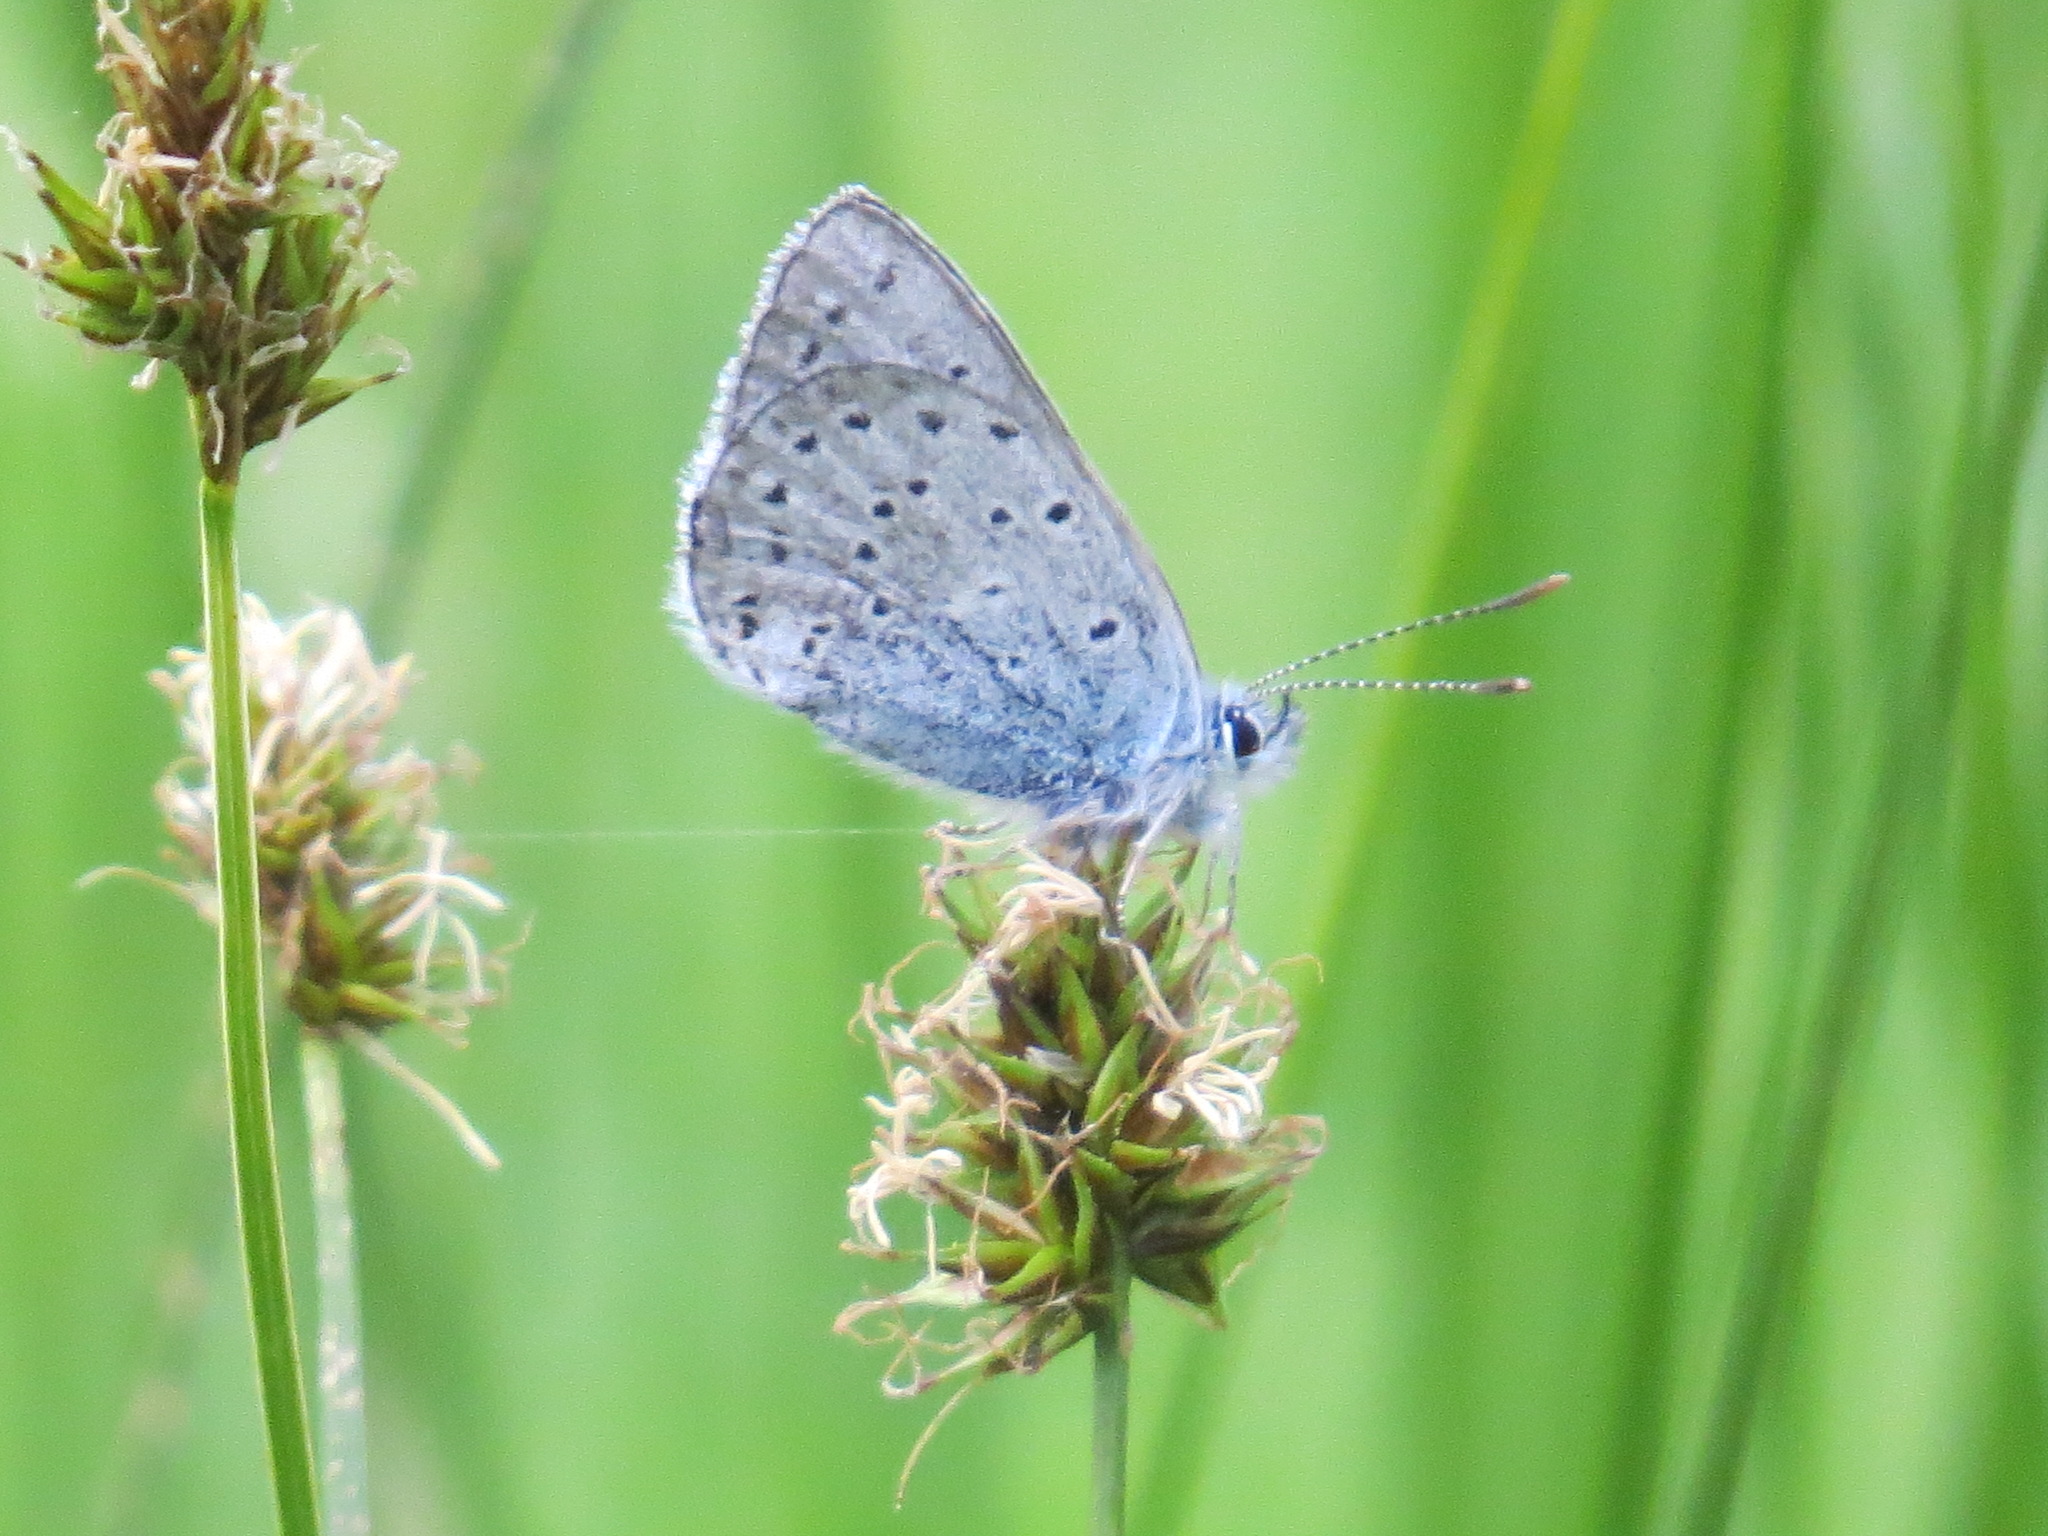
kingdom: Animalia
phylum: Arthropoda
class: Insecta
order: Lepidoptera
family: Lycaenidae
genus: Icaricia
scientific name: Icaricia saepiolus
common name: Greenish blue
